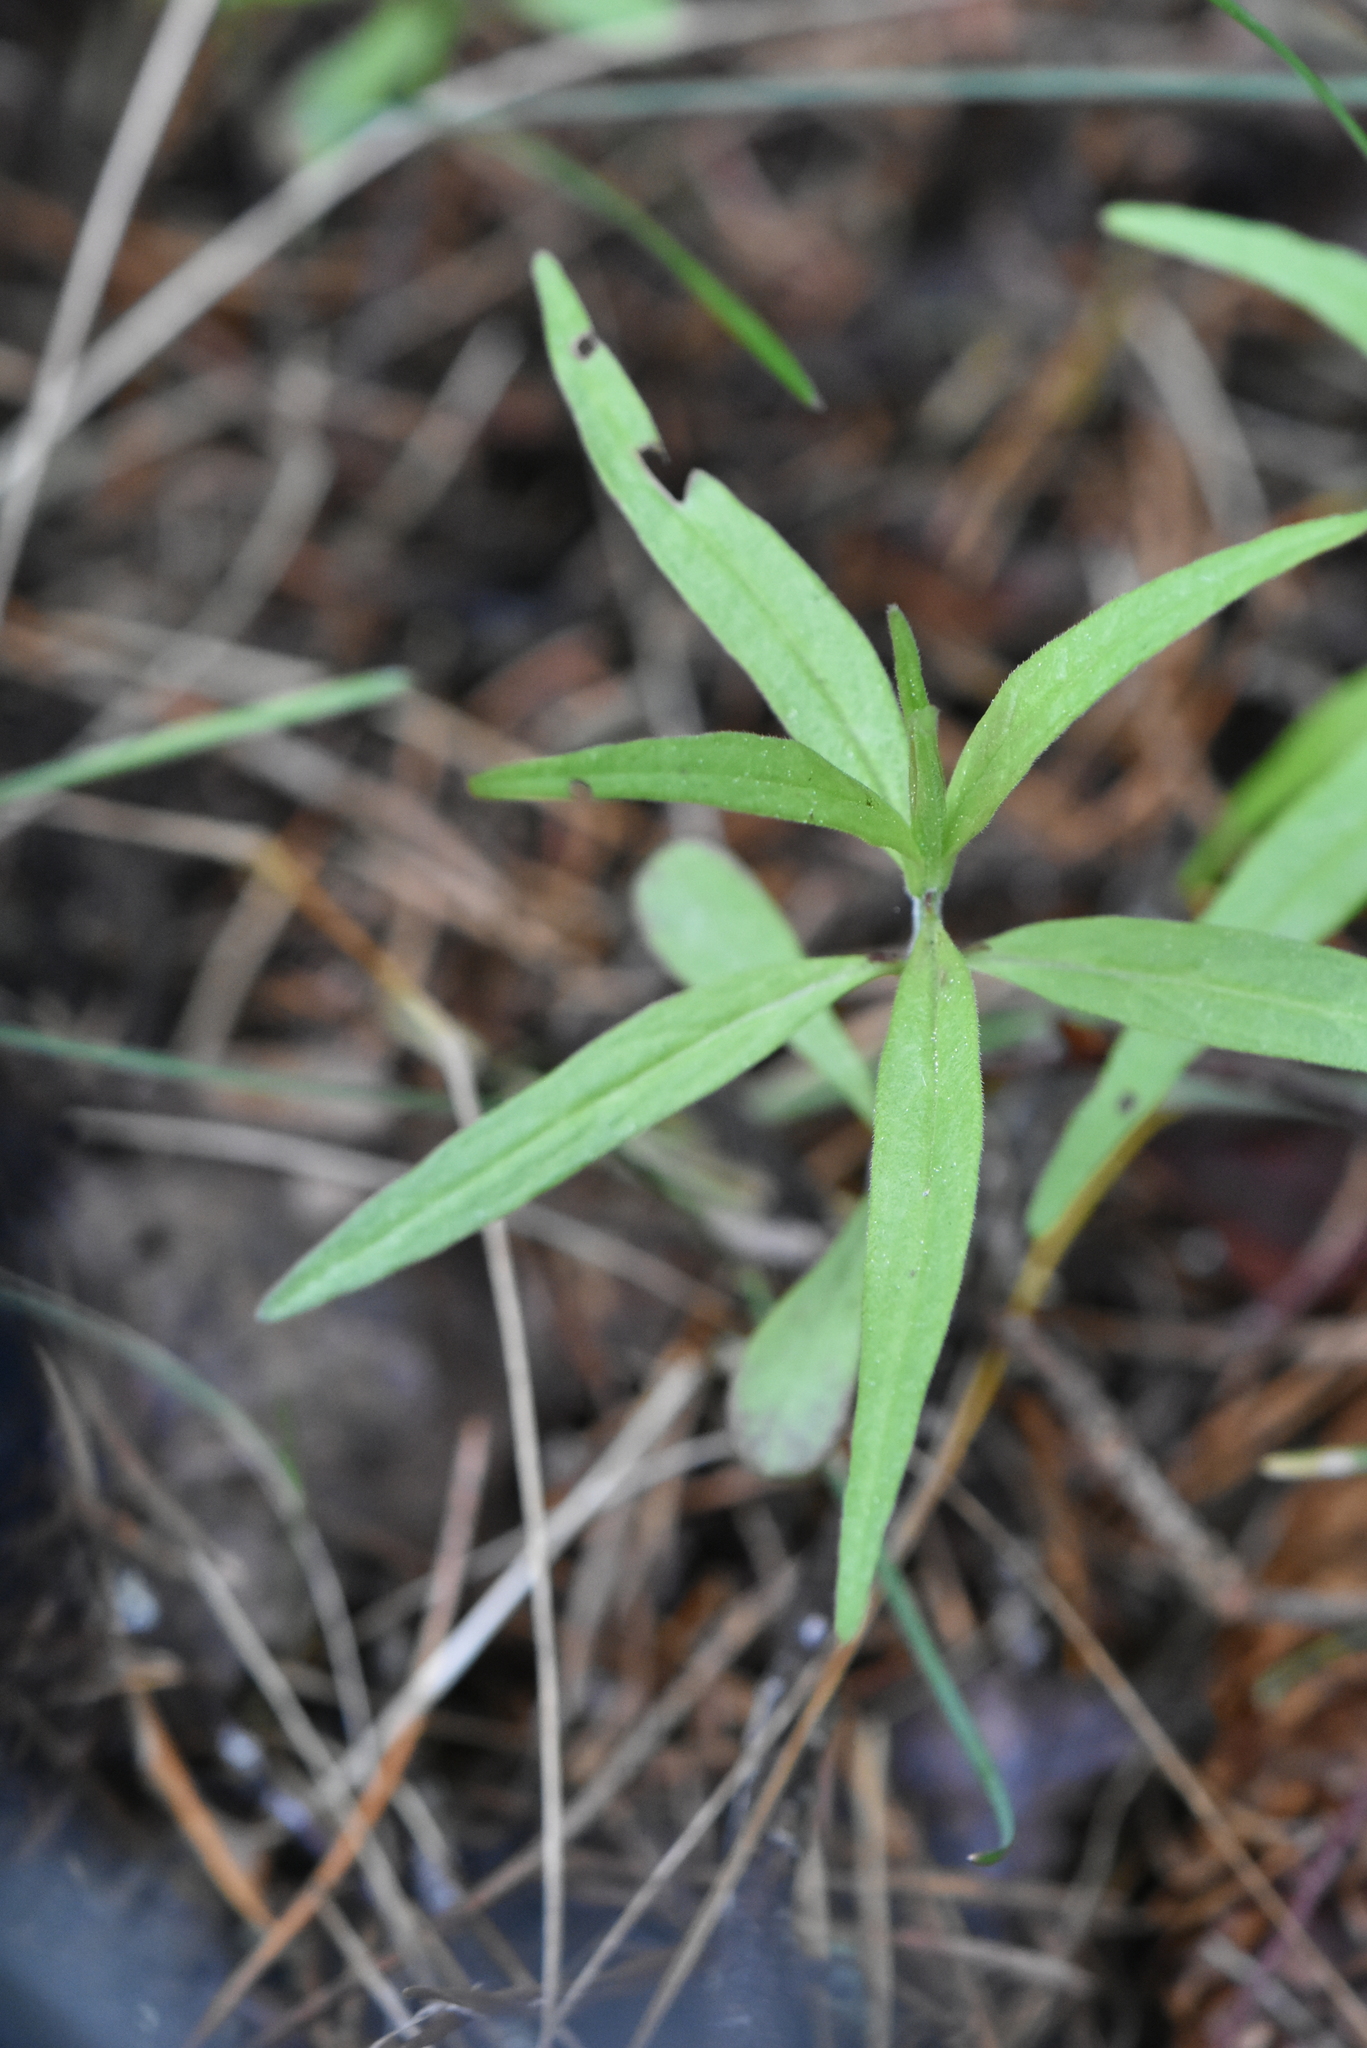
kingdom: Plantae
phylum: Tracheophyta
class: Magnoliopsida
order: Lamiales
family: Orobanchaceae
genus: Melampyrum
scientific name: Melampyrum pratense
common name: Common cow-wheat
